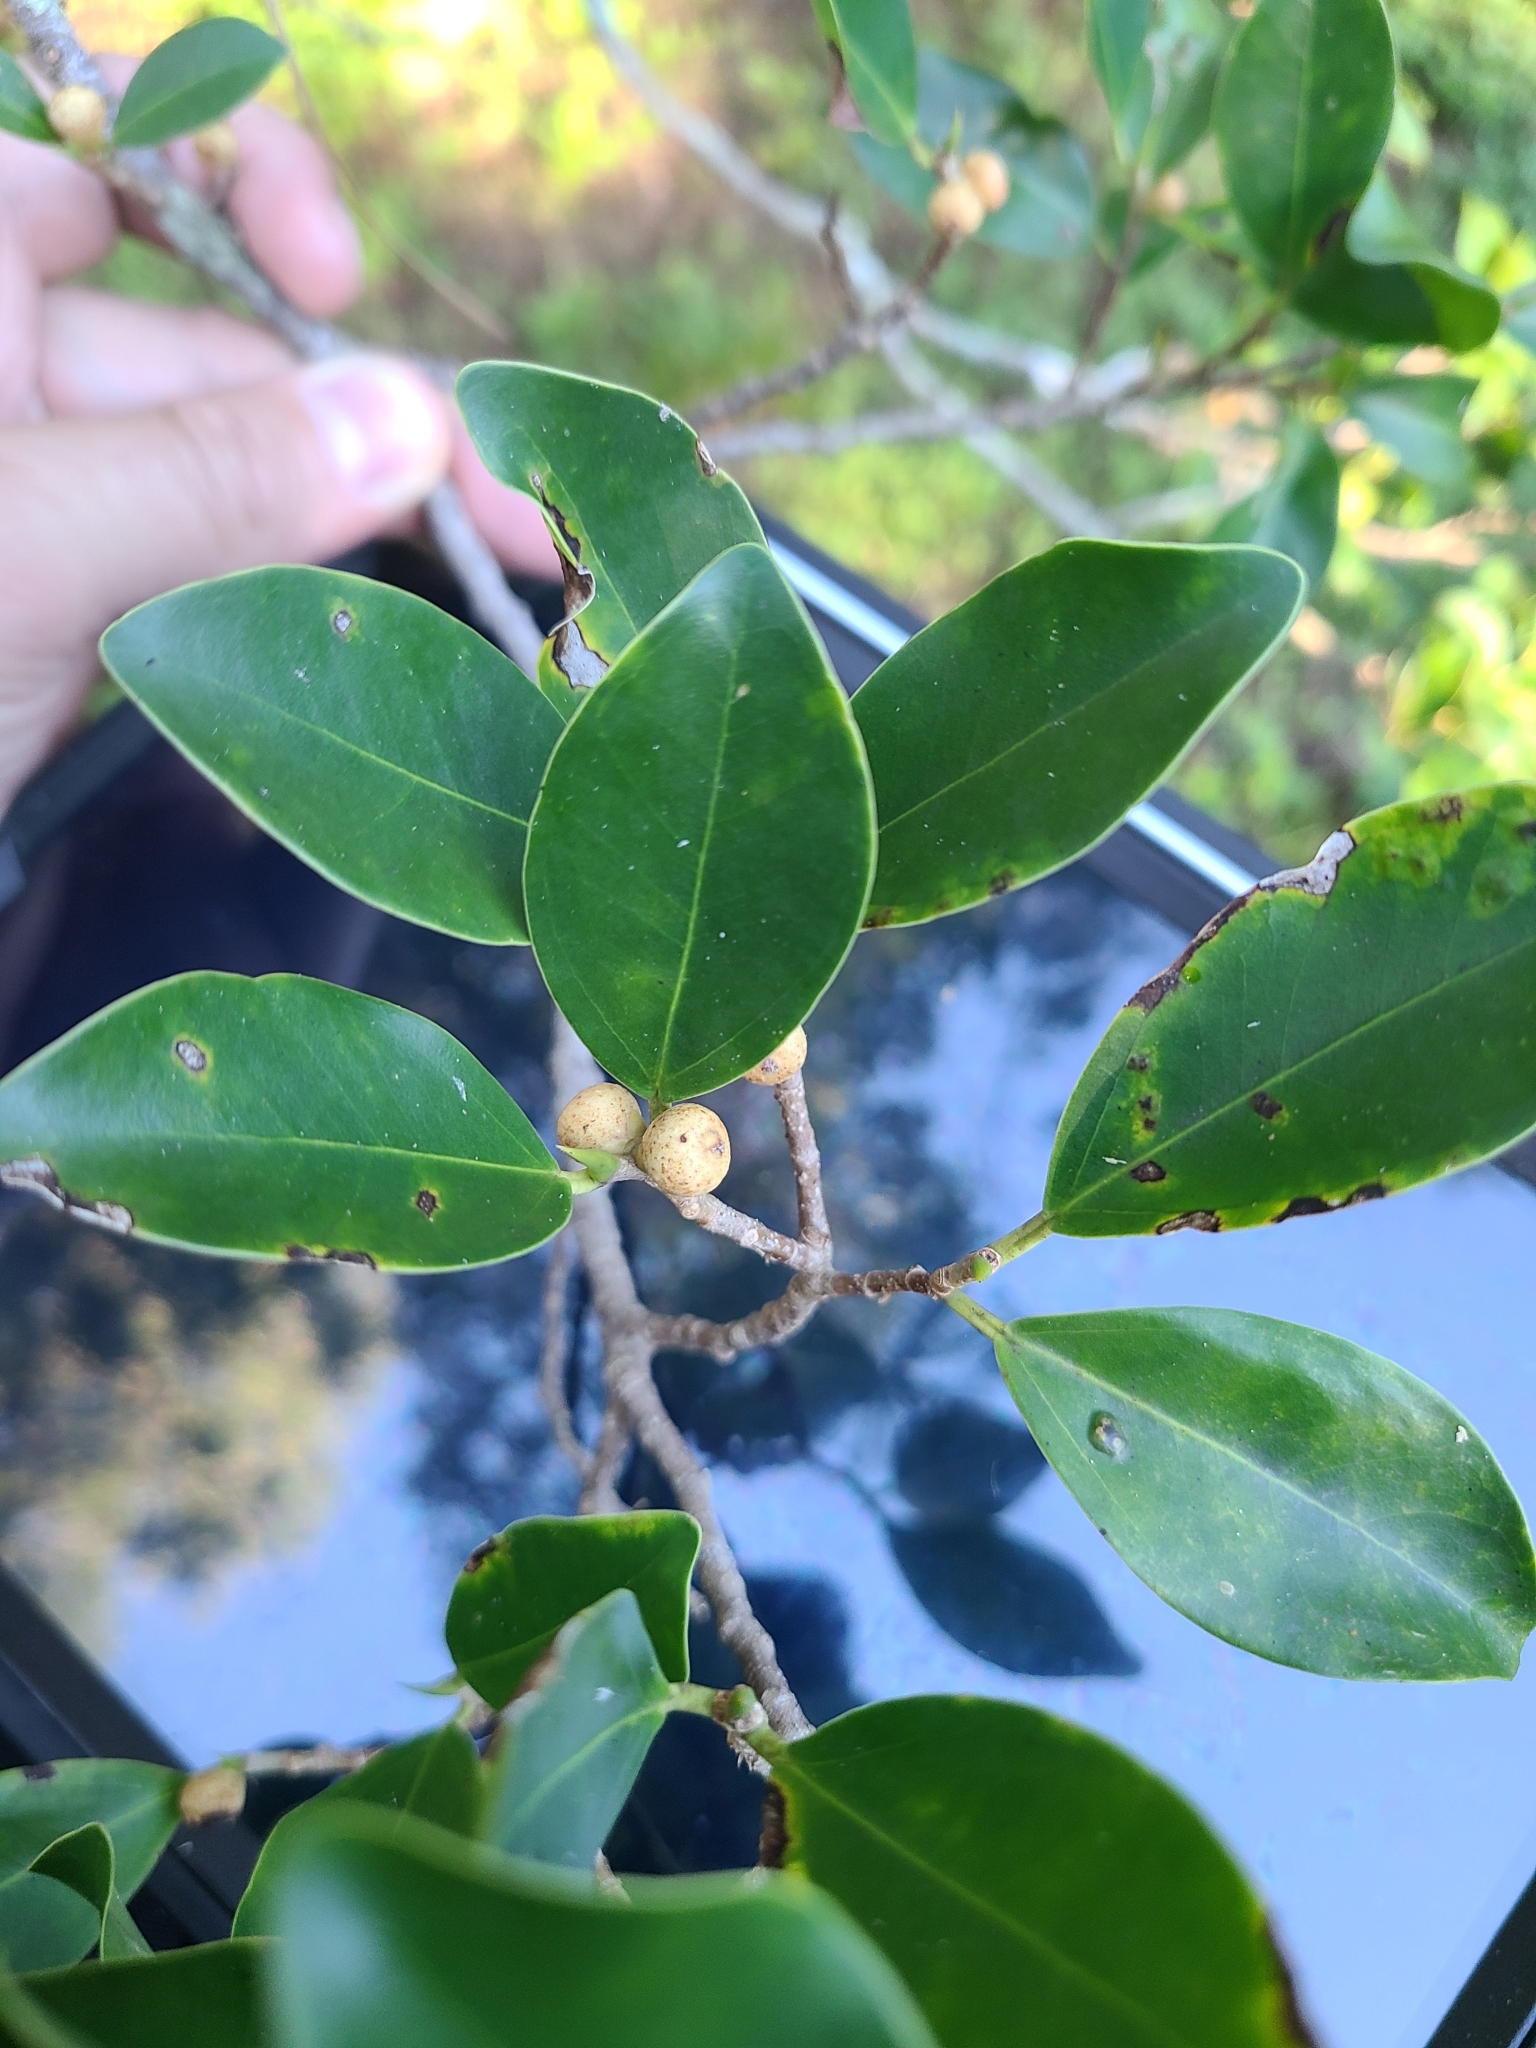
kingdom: Plantae
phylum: Tracheophyta
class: Magnoliopsida
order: Rosales
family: Moraceae
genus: Ficus
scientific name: Ficus microcarpa
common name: Chinese banyan
